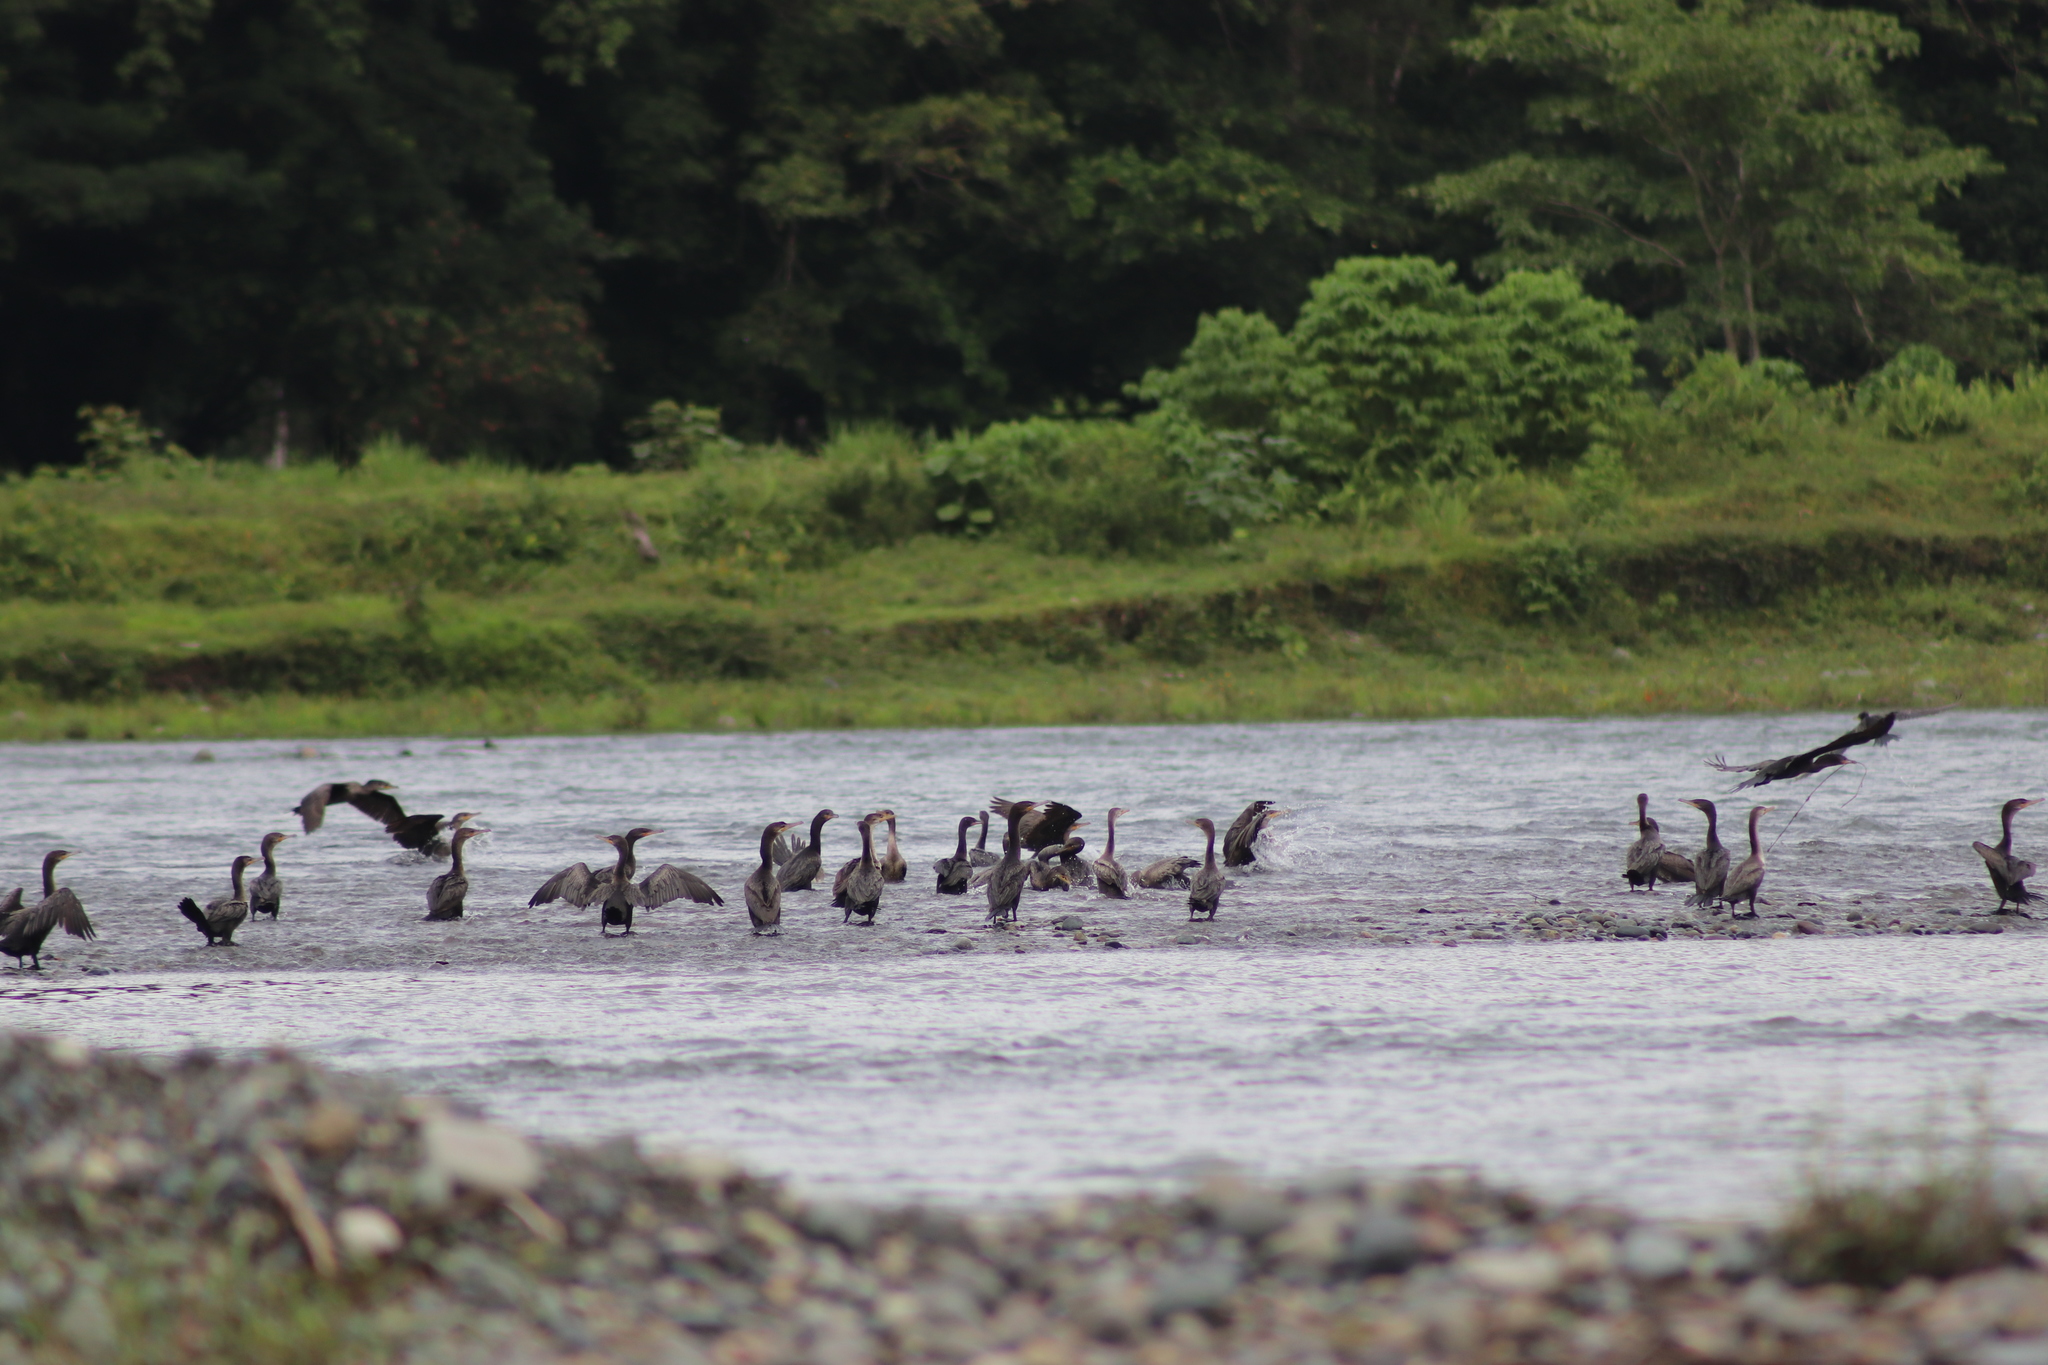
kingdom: Animalia
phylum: Chordata
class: Aves
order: Suliformes
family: Phalacrocoracidae
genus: Phalacrocorax
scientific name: Phalacrocorax brasilianus
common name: Neotropic cormorant
